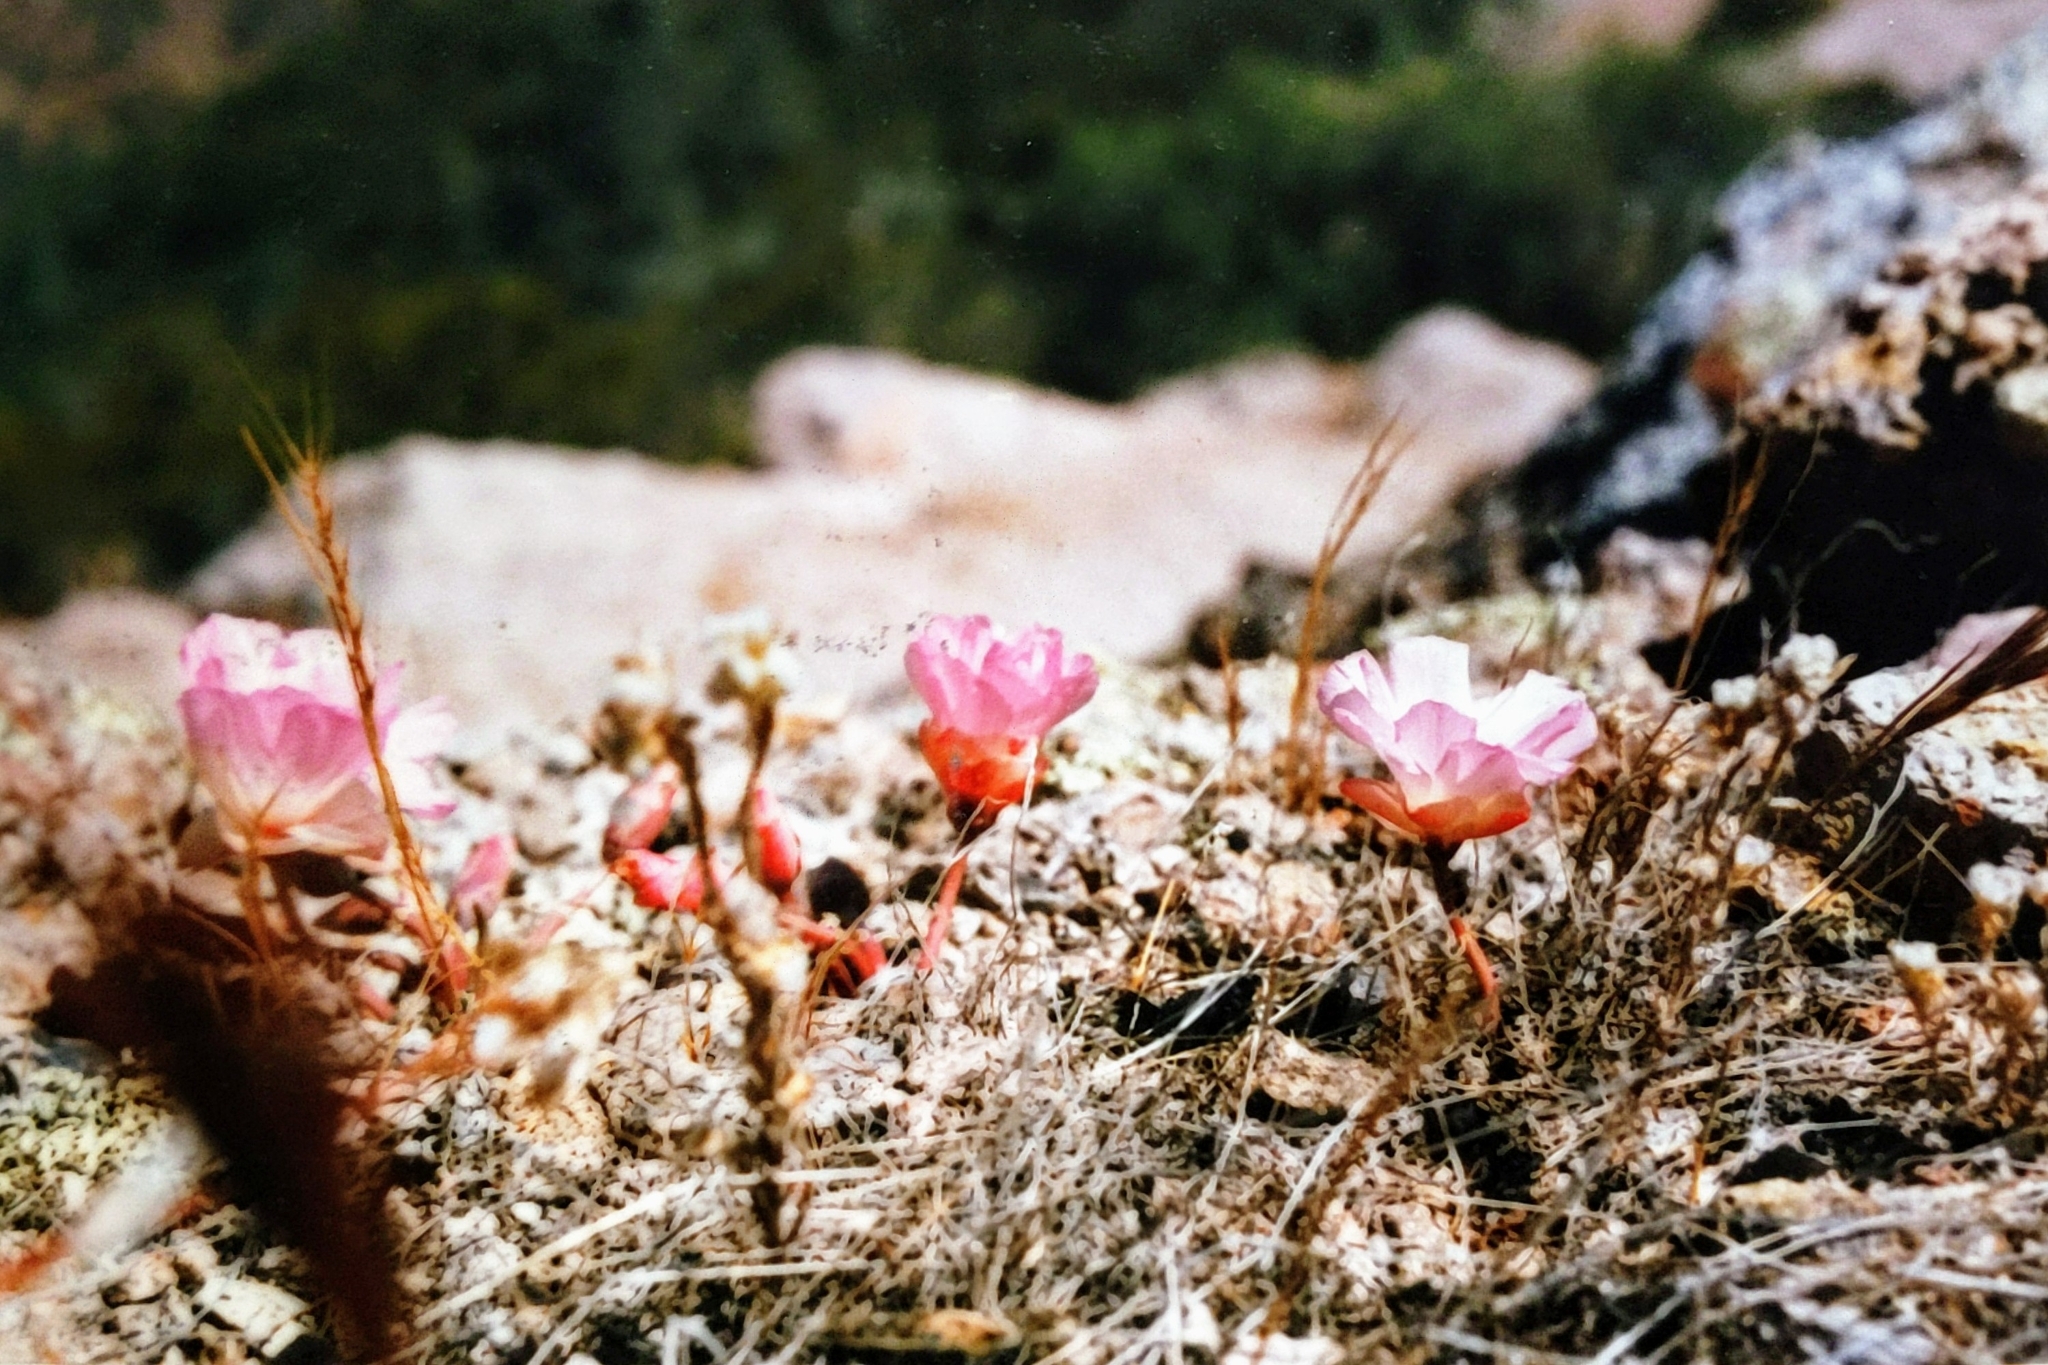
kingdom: Plantae
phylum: Tracheophyta
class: Magnoliopsida
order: Caryophyllales
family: Montiaceae
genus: Lewisia
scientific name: Lewisia rediviva
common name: Bitter-root
